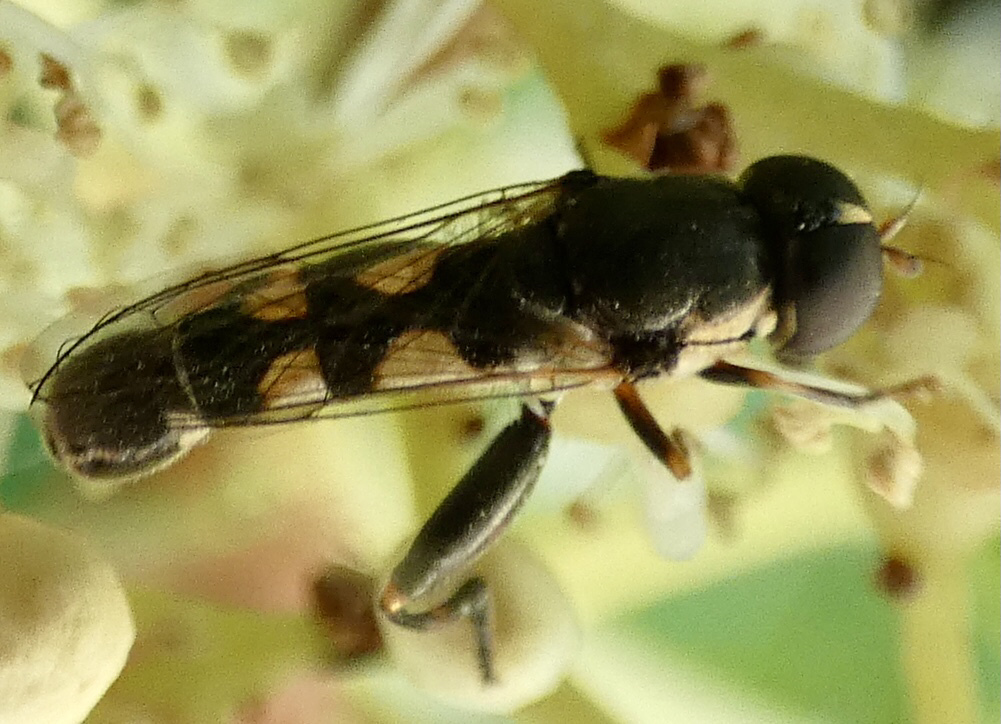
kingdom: Animalia
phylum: Arthropoda
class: Insecta
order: Diptera
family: Syrphidae
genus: Syritta
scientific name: Syritta pipiens
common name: Hover fly
